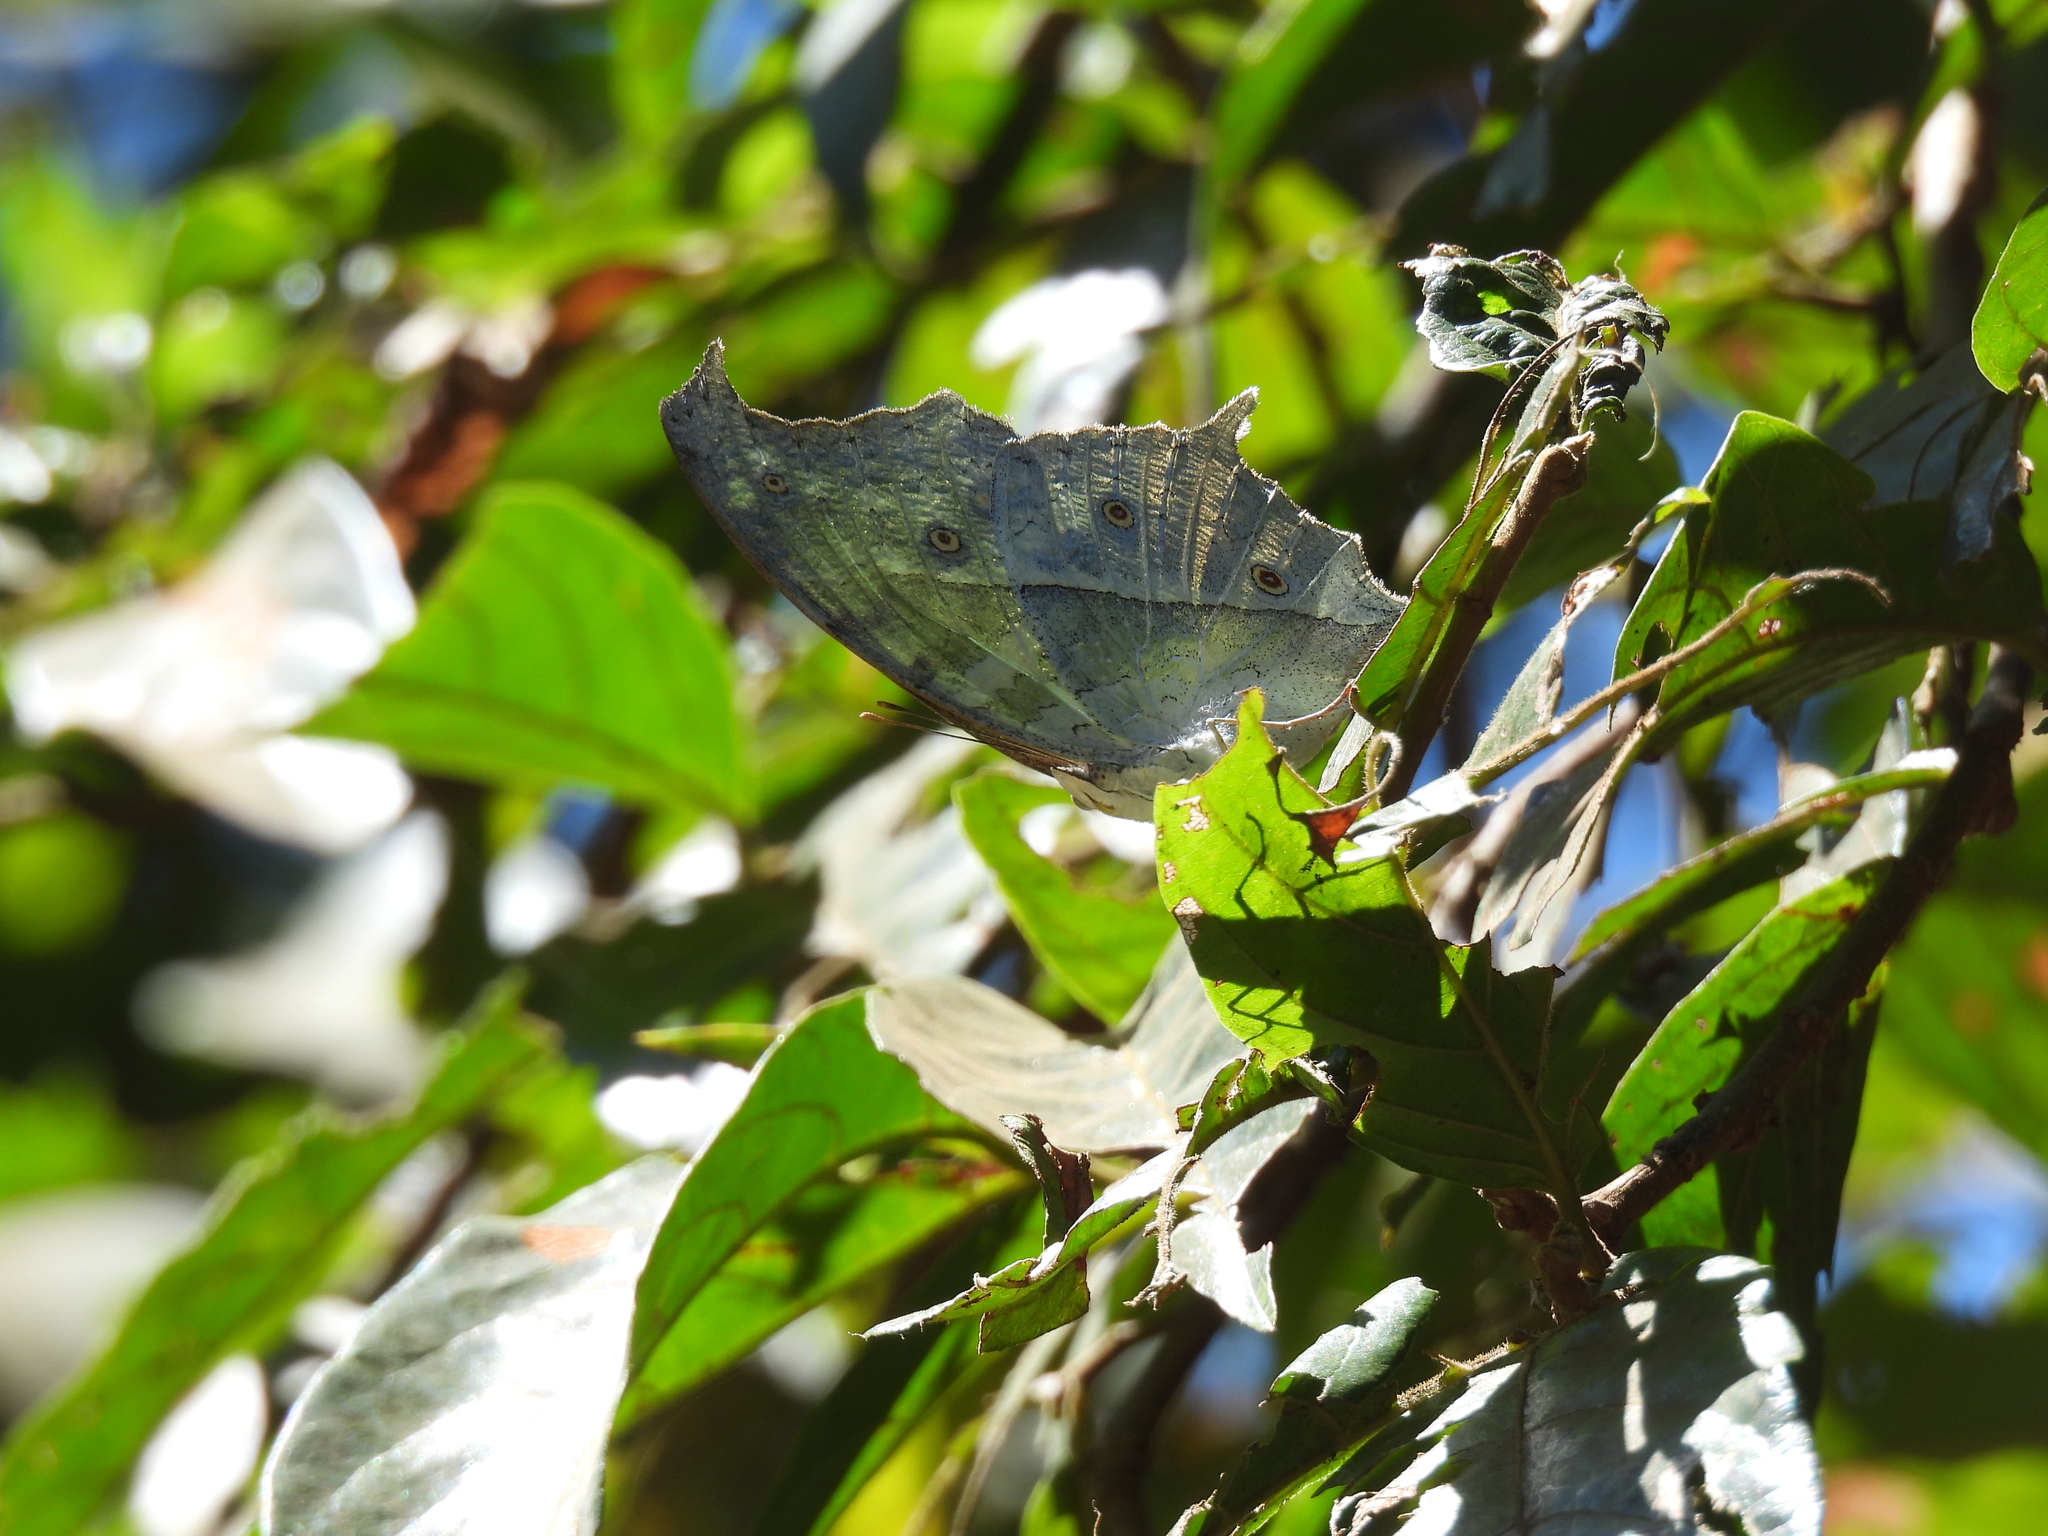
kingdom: Animalia
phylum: Arthropoda
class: Insecta
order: Lepidoptera
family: Nymphalidae
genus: Salamis
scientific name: Salamis Protogoniomorpha parhassus
